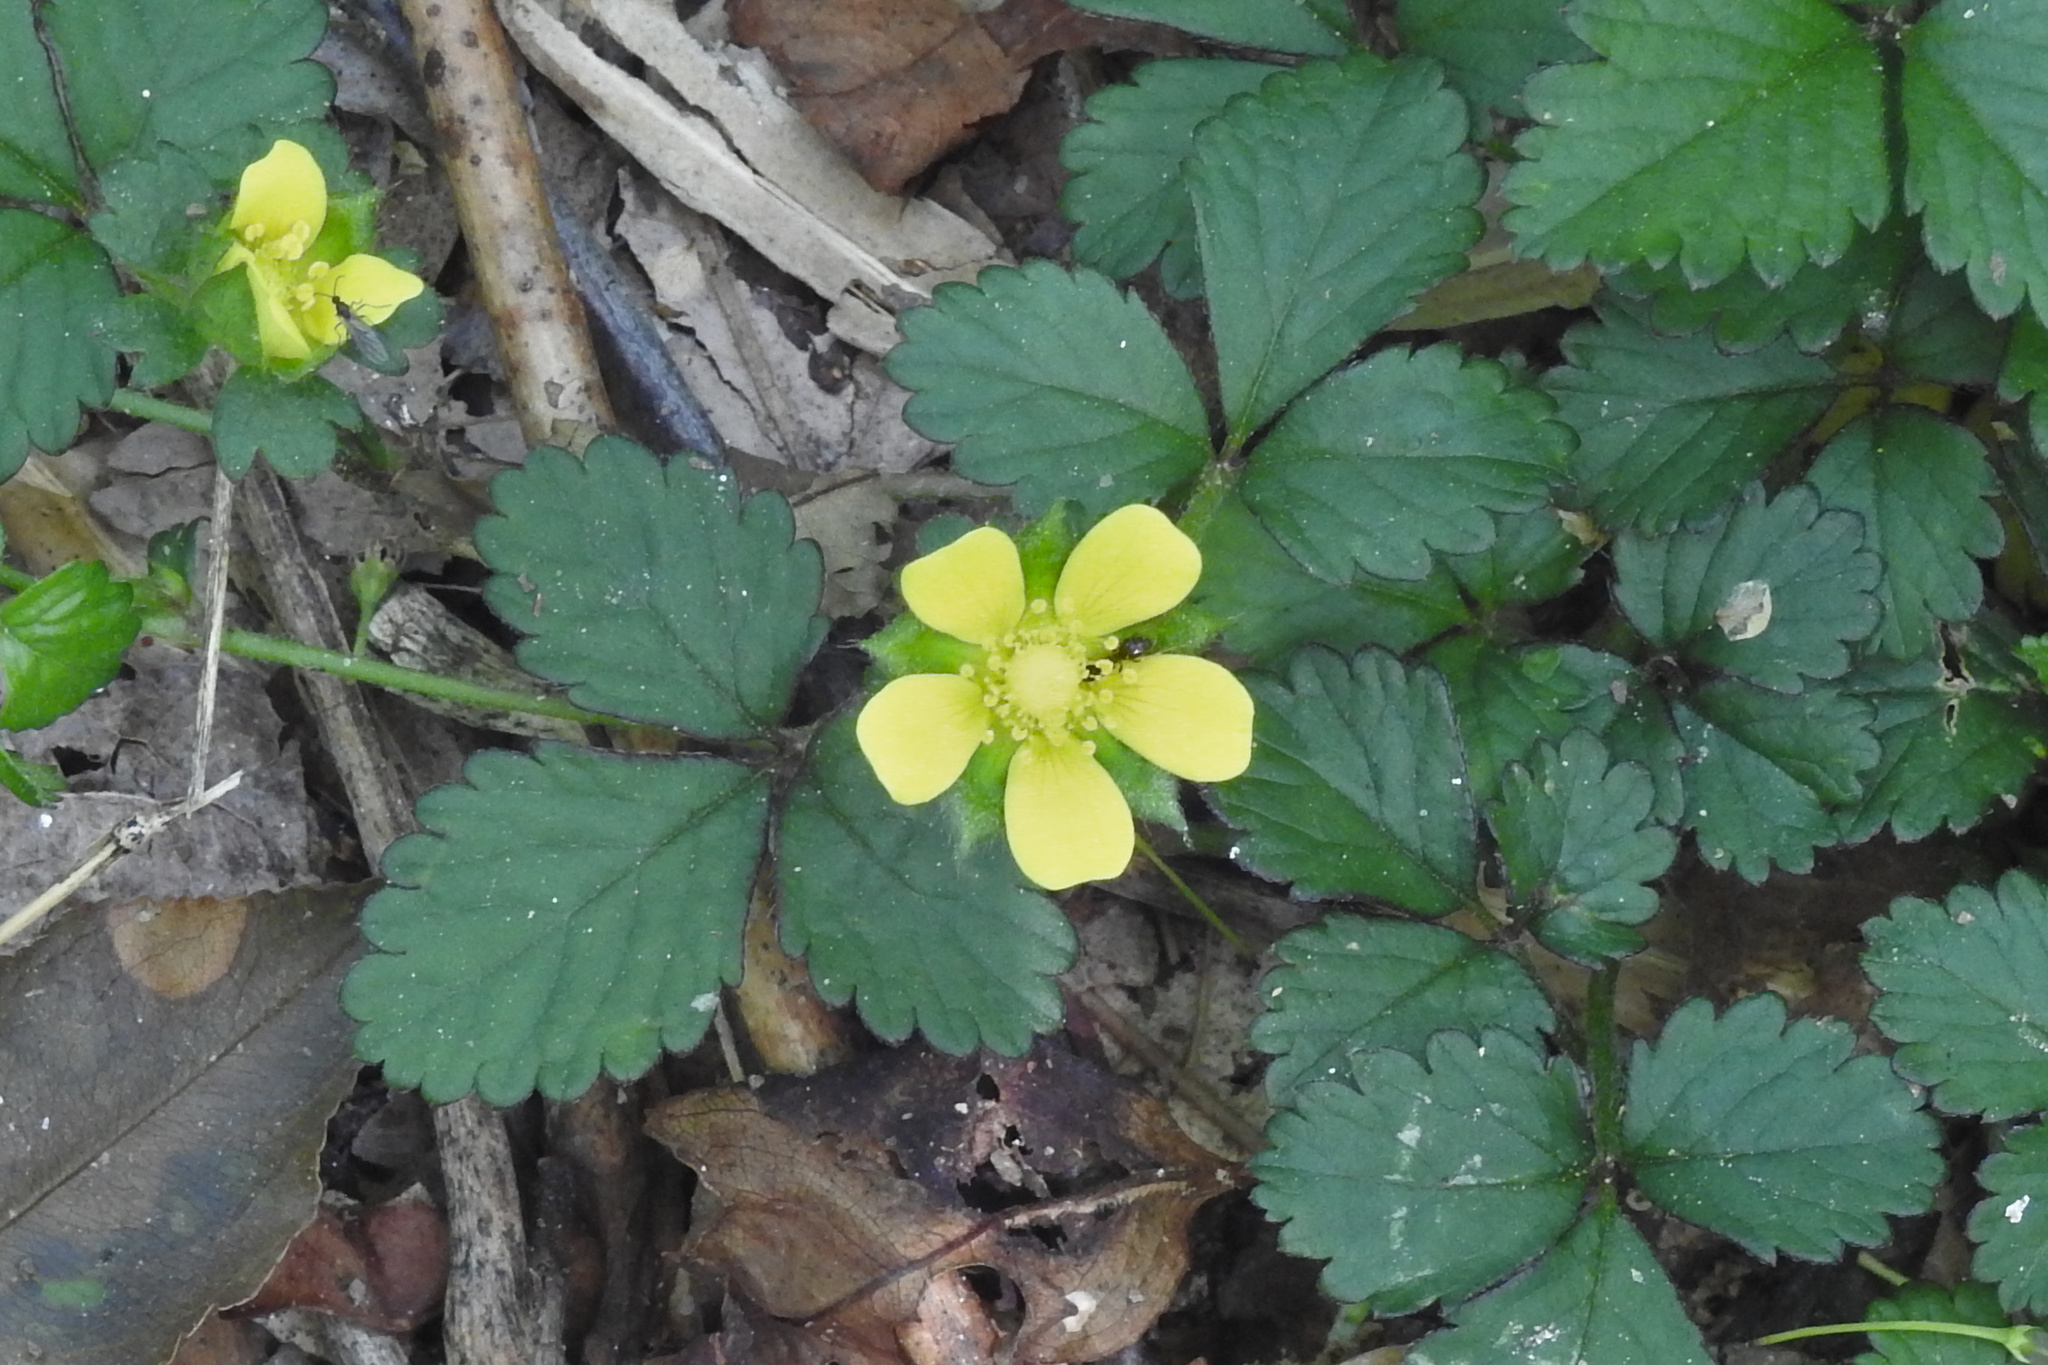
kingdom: Plantae
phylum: Tracheophyta
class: Magnoliopsida
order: Rosales
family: Rosaceae
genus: Potentilla
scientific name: Potentilla indica
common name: Yellow-flowered strawberry
